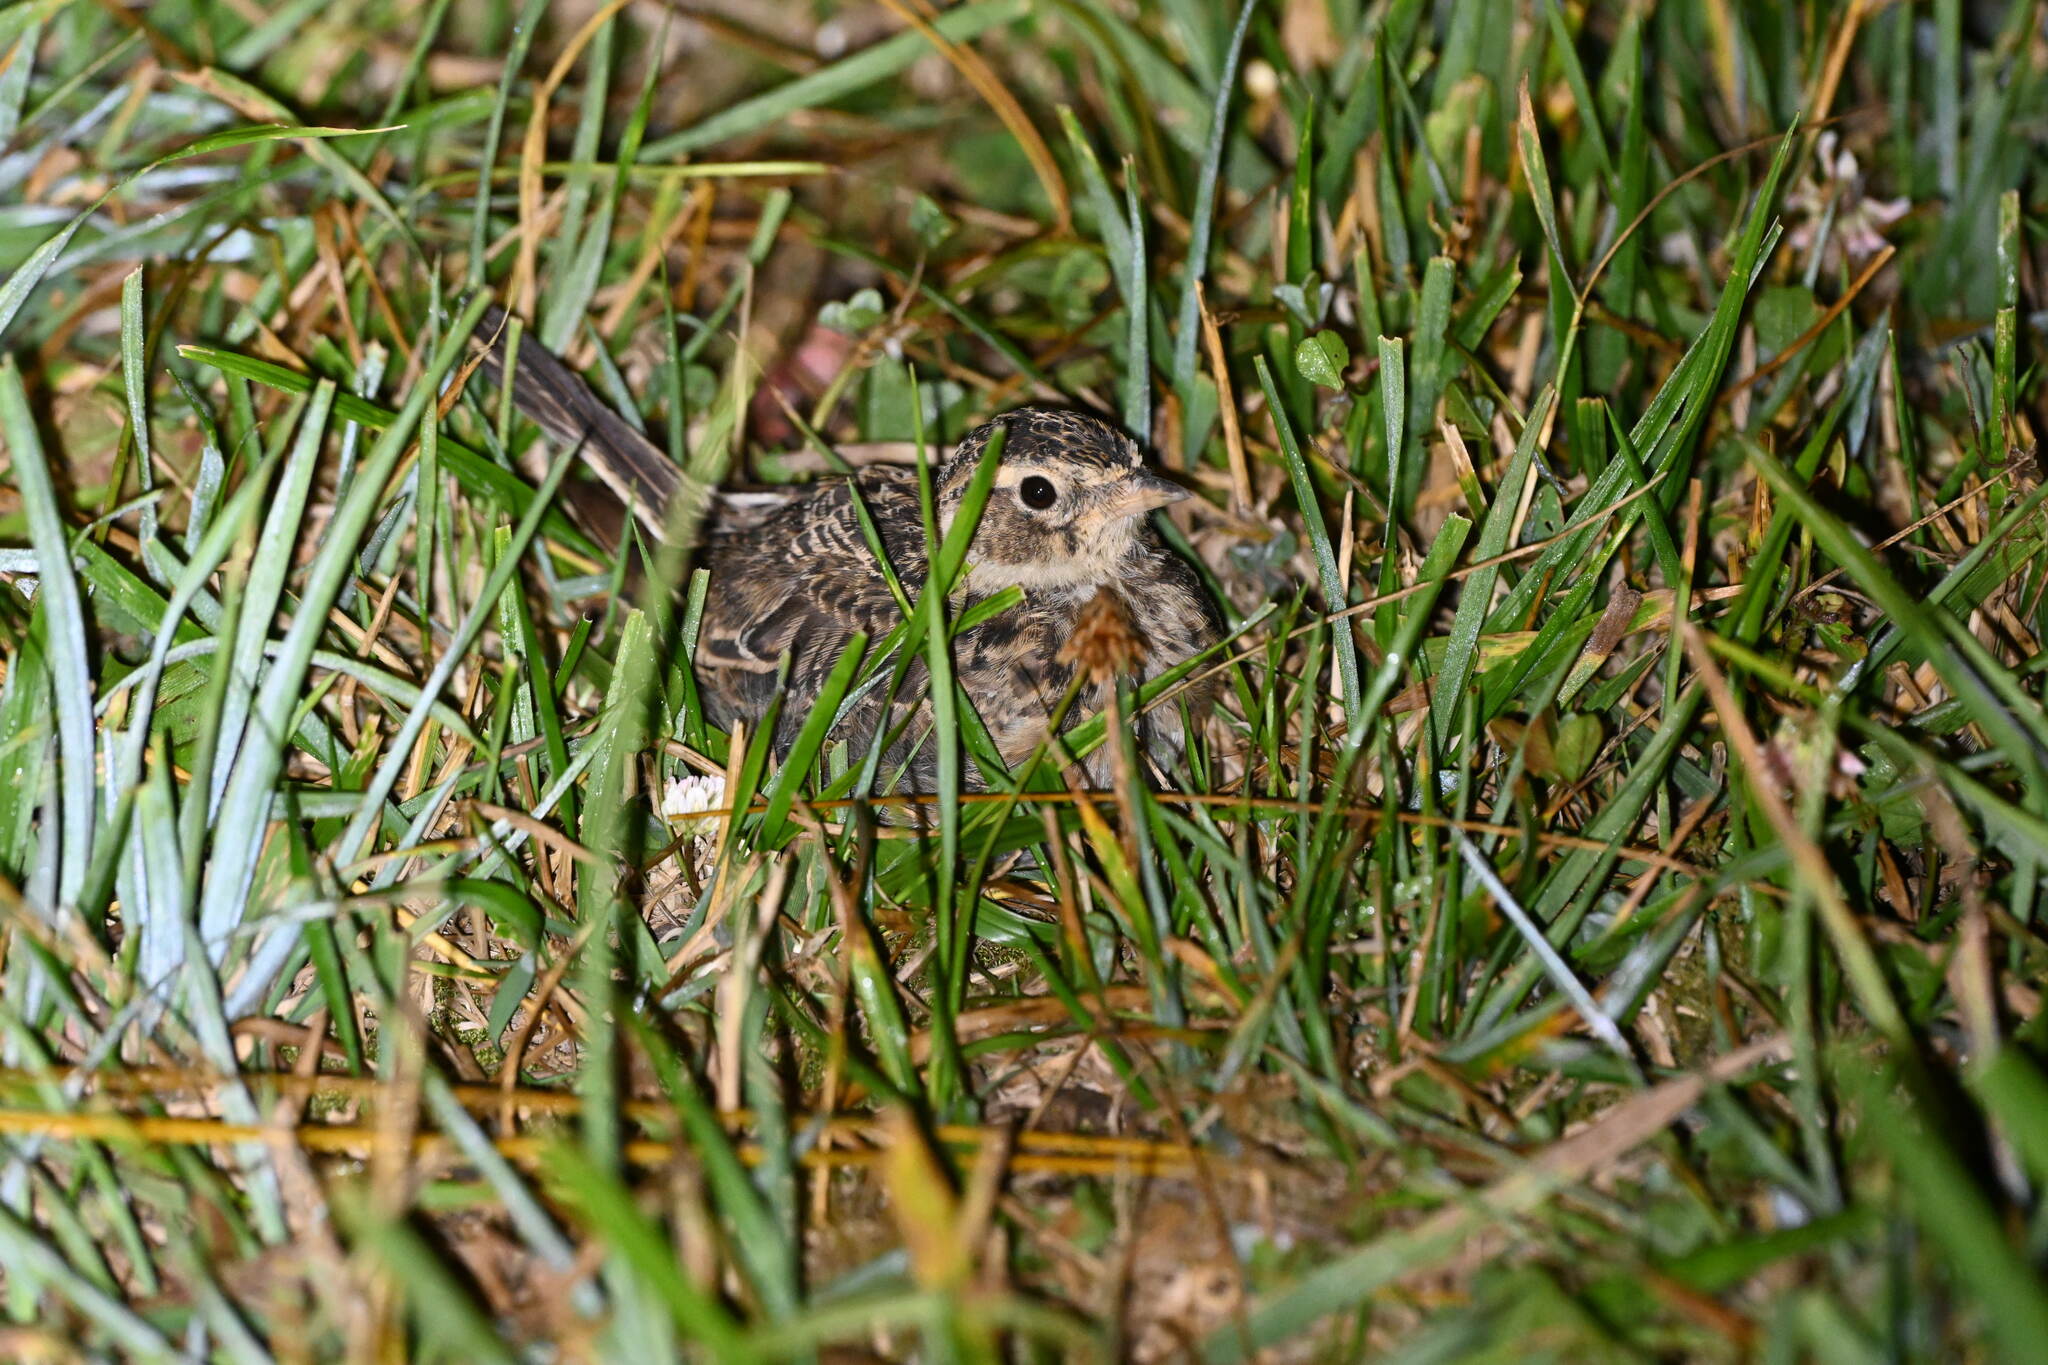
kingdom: Animalia
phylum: Chordata
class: Aves
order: Passeriformes
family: Alaudidae
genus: Alauda
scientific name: Alauda arvensis
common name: Eurasian skylark
